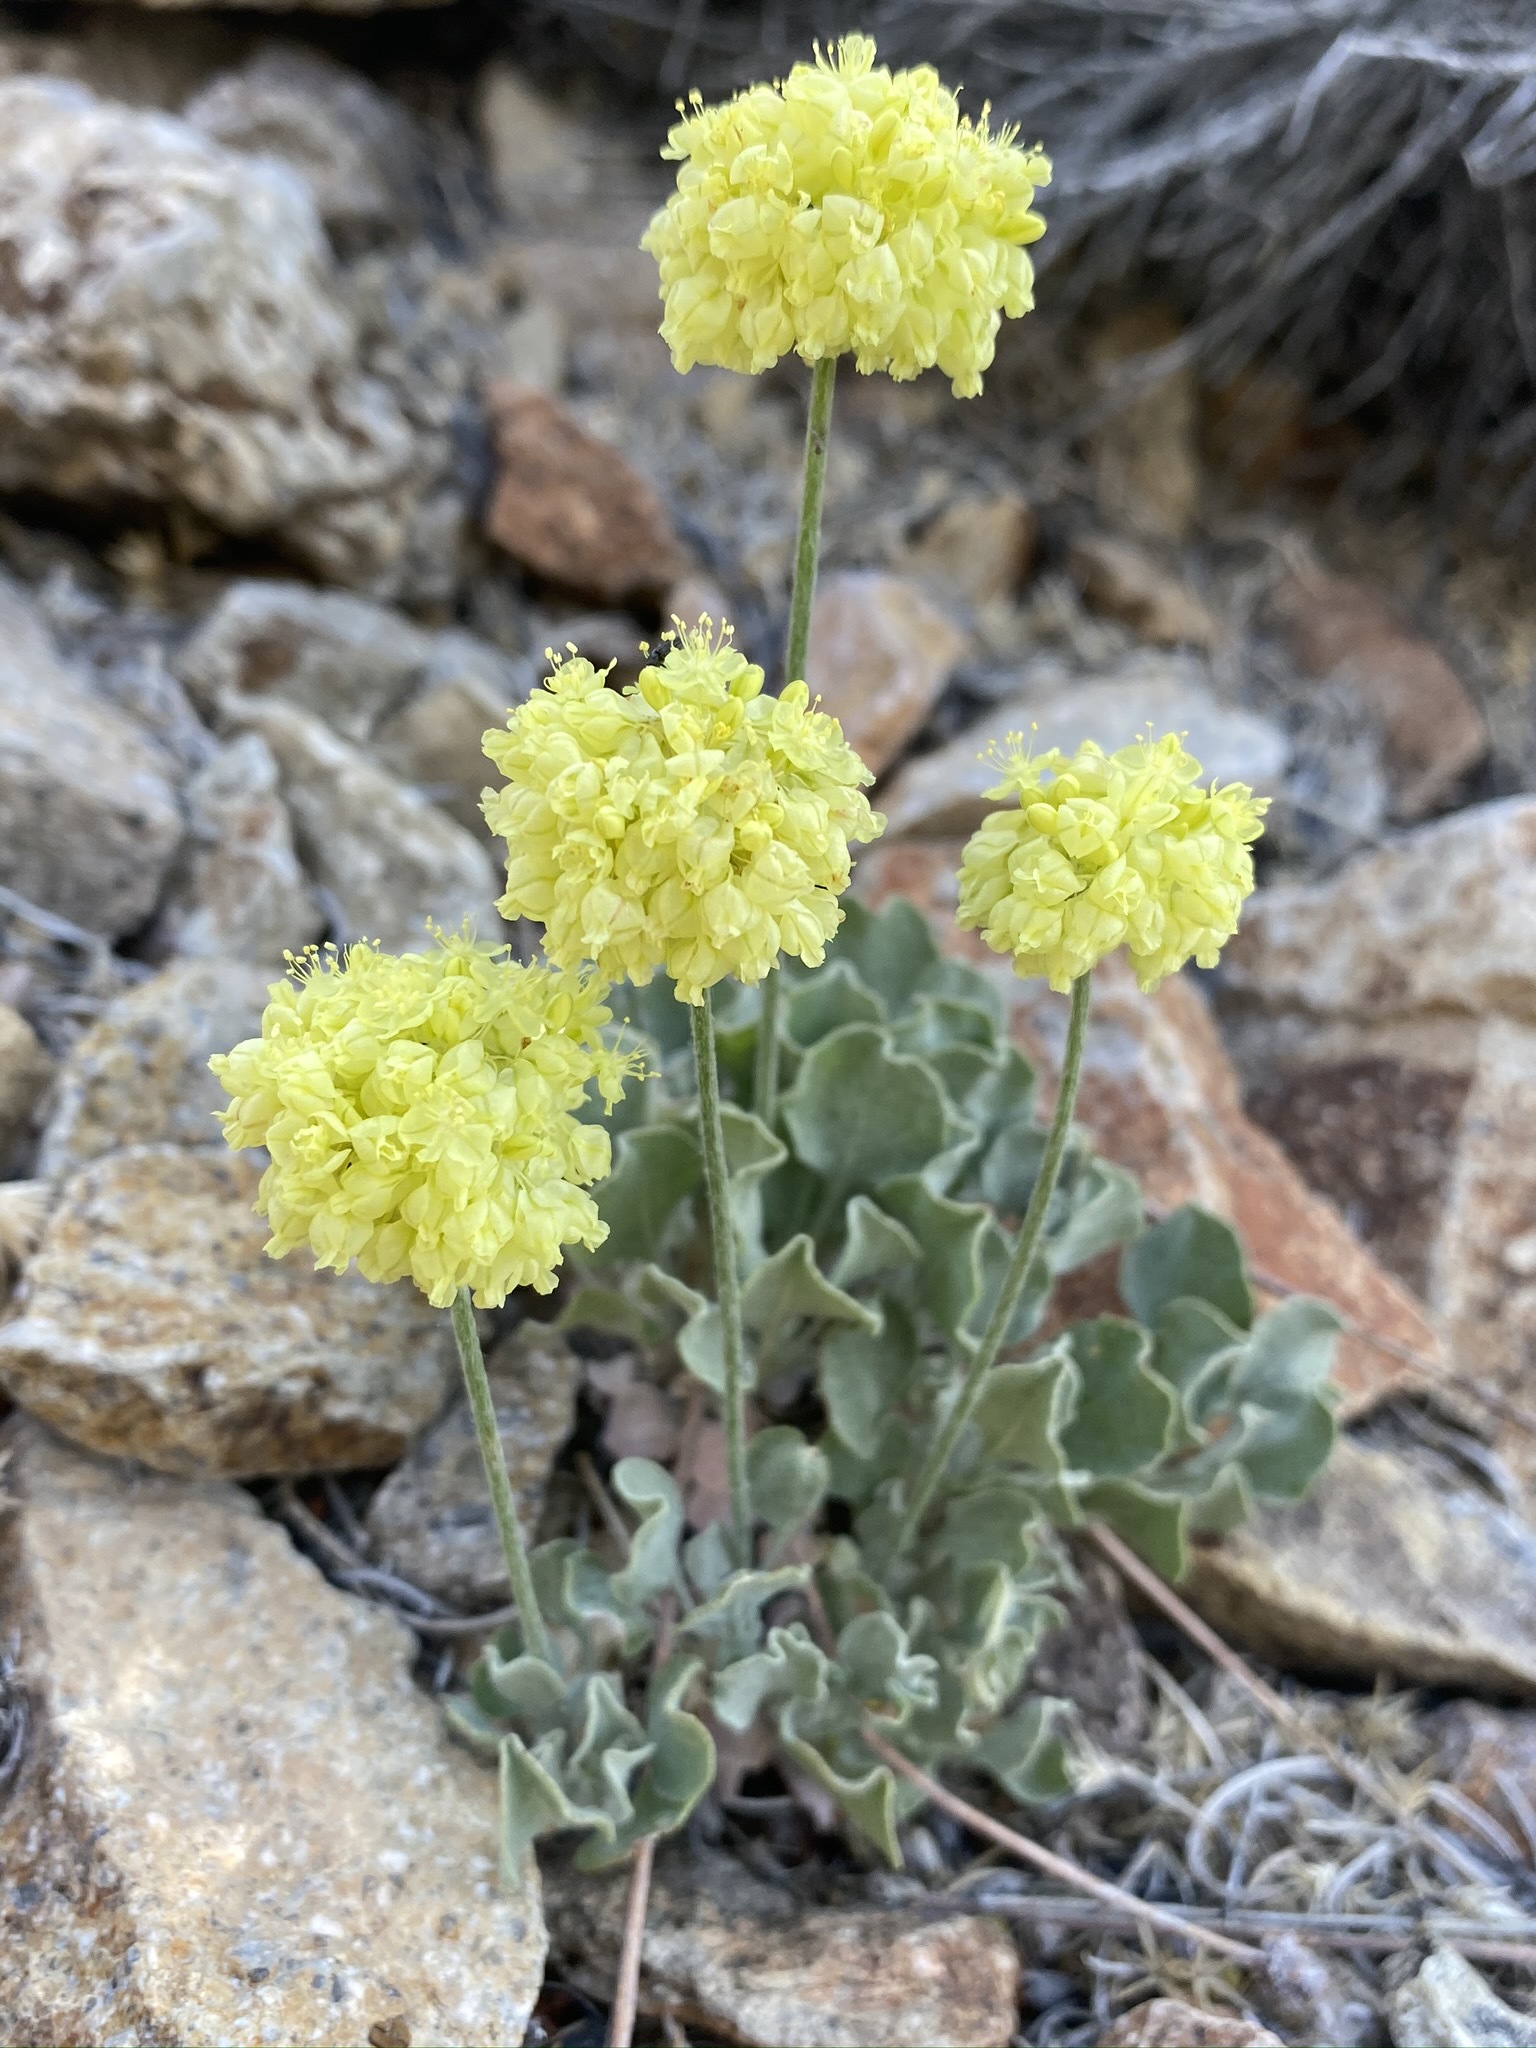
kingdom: Plantae
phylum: Tracheophyta
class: Magnoliopsida
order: Caryophyllales
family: Polygonaceae
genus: Eriogonum
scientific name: Eriogonum ovalifolium
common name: Cushion buckwheat
